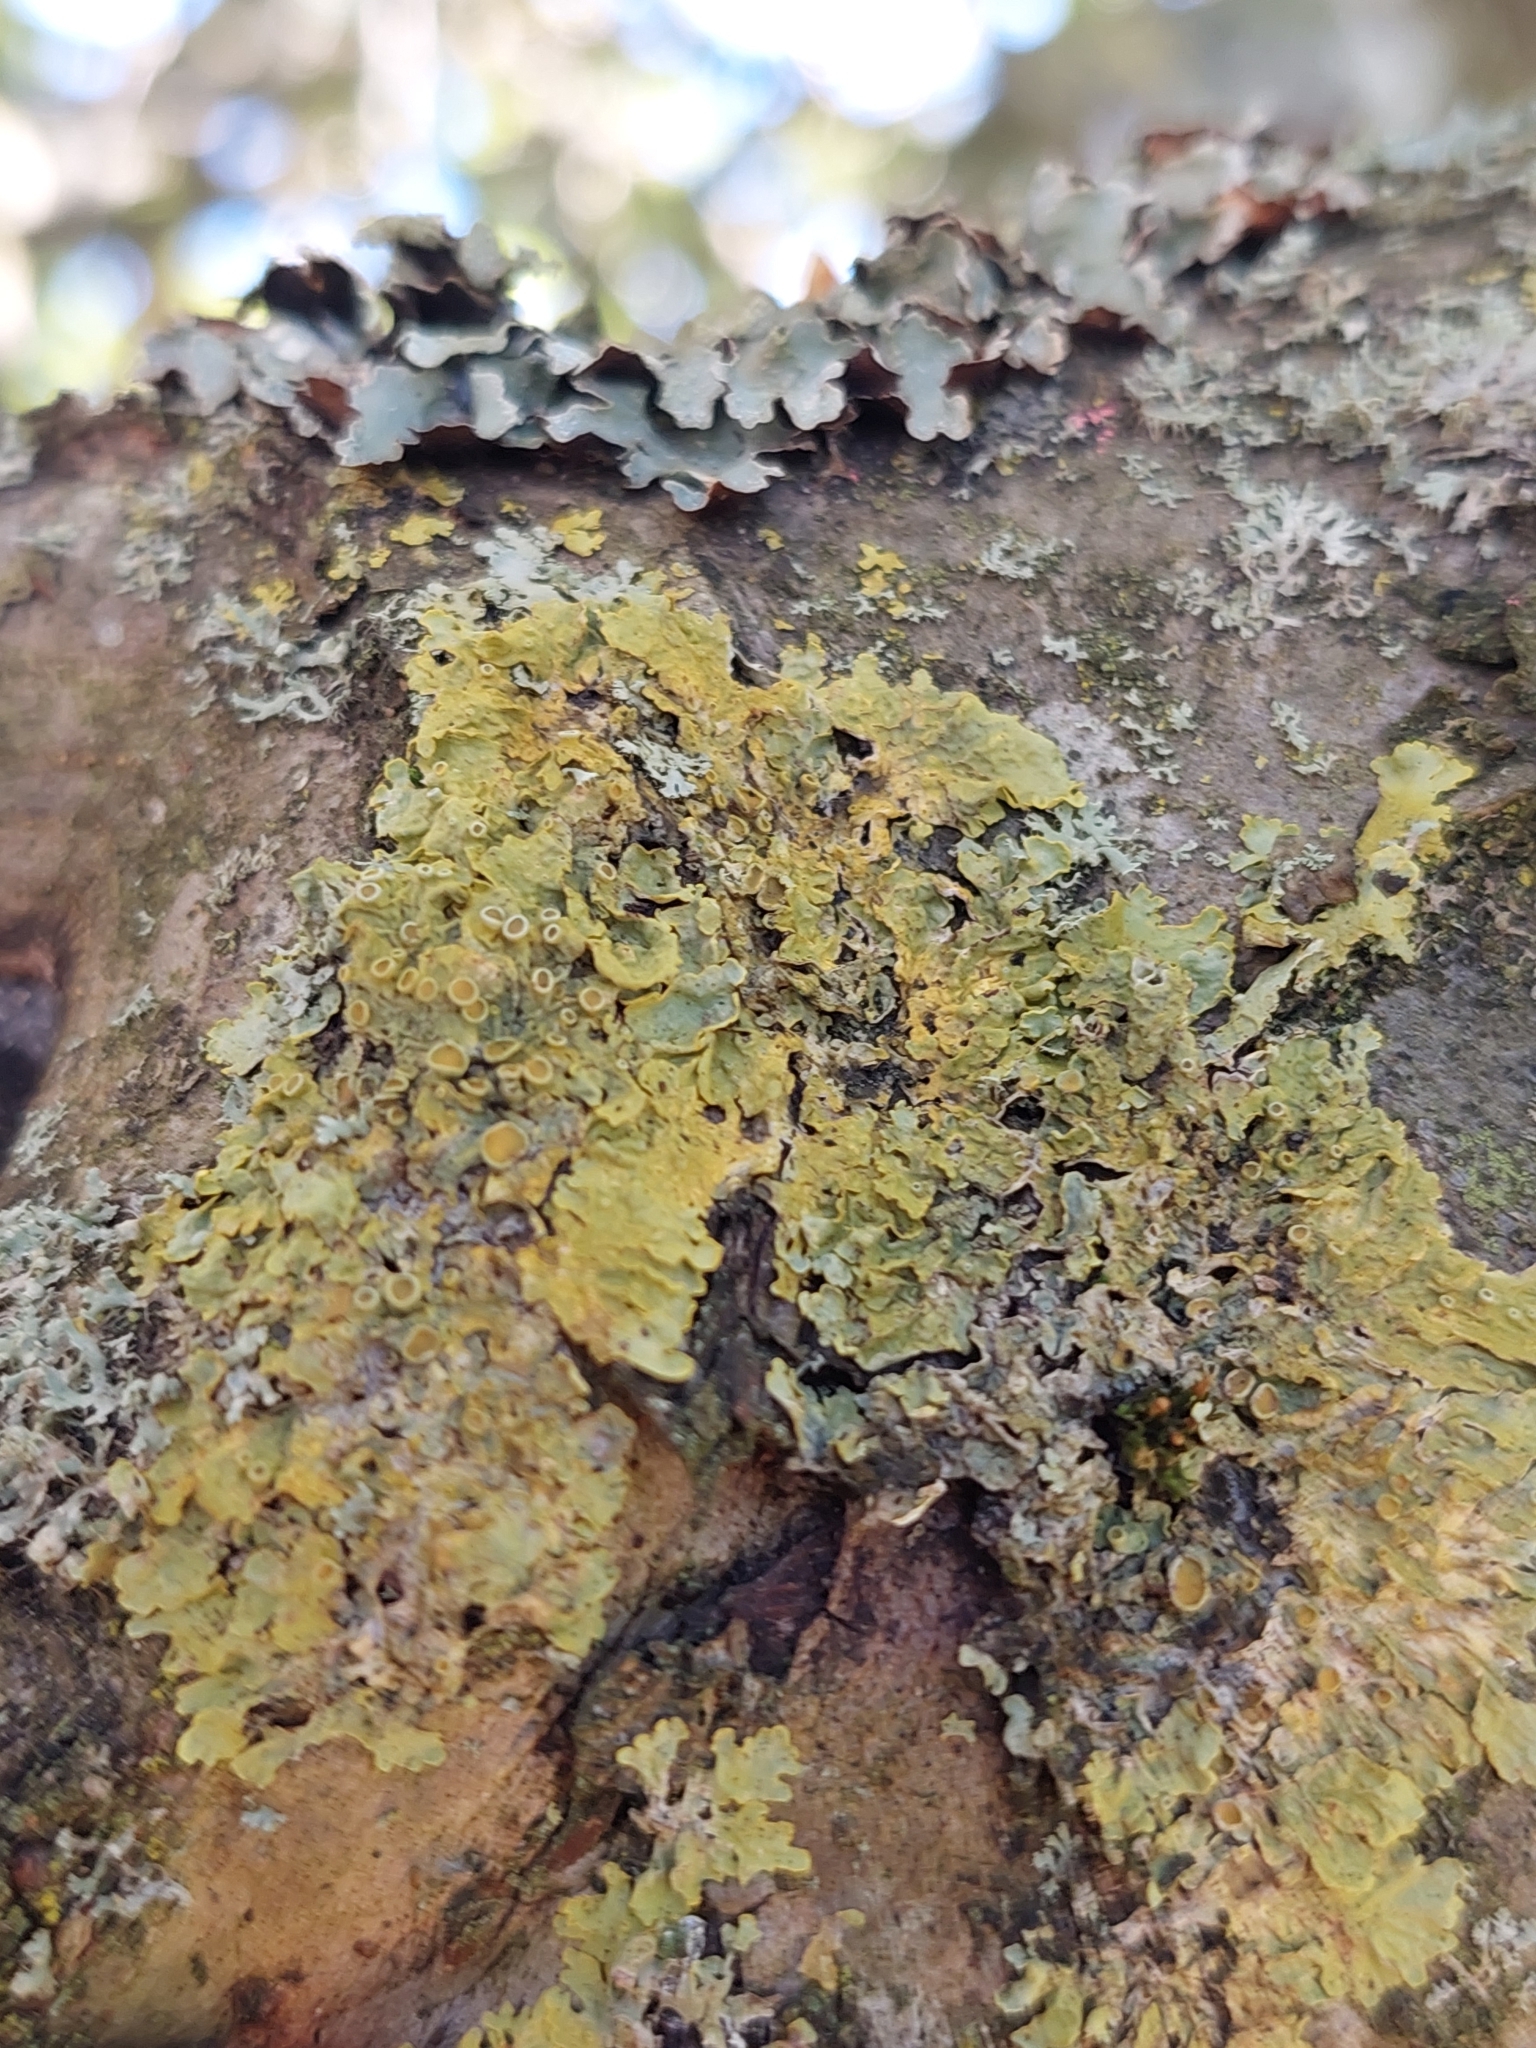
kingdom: Fungi
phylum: Ascomycota
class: Lecanoromycetes
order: Teloschistales
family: Teloschistaceae
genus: Xanthoria
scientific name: Xanthoria parietina
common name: Common orange lichen
